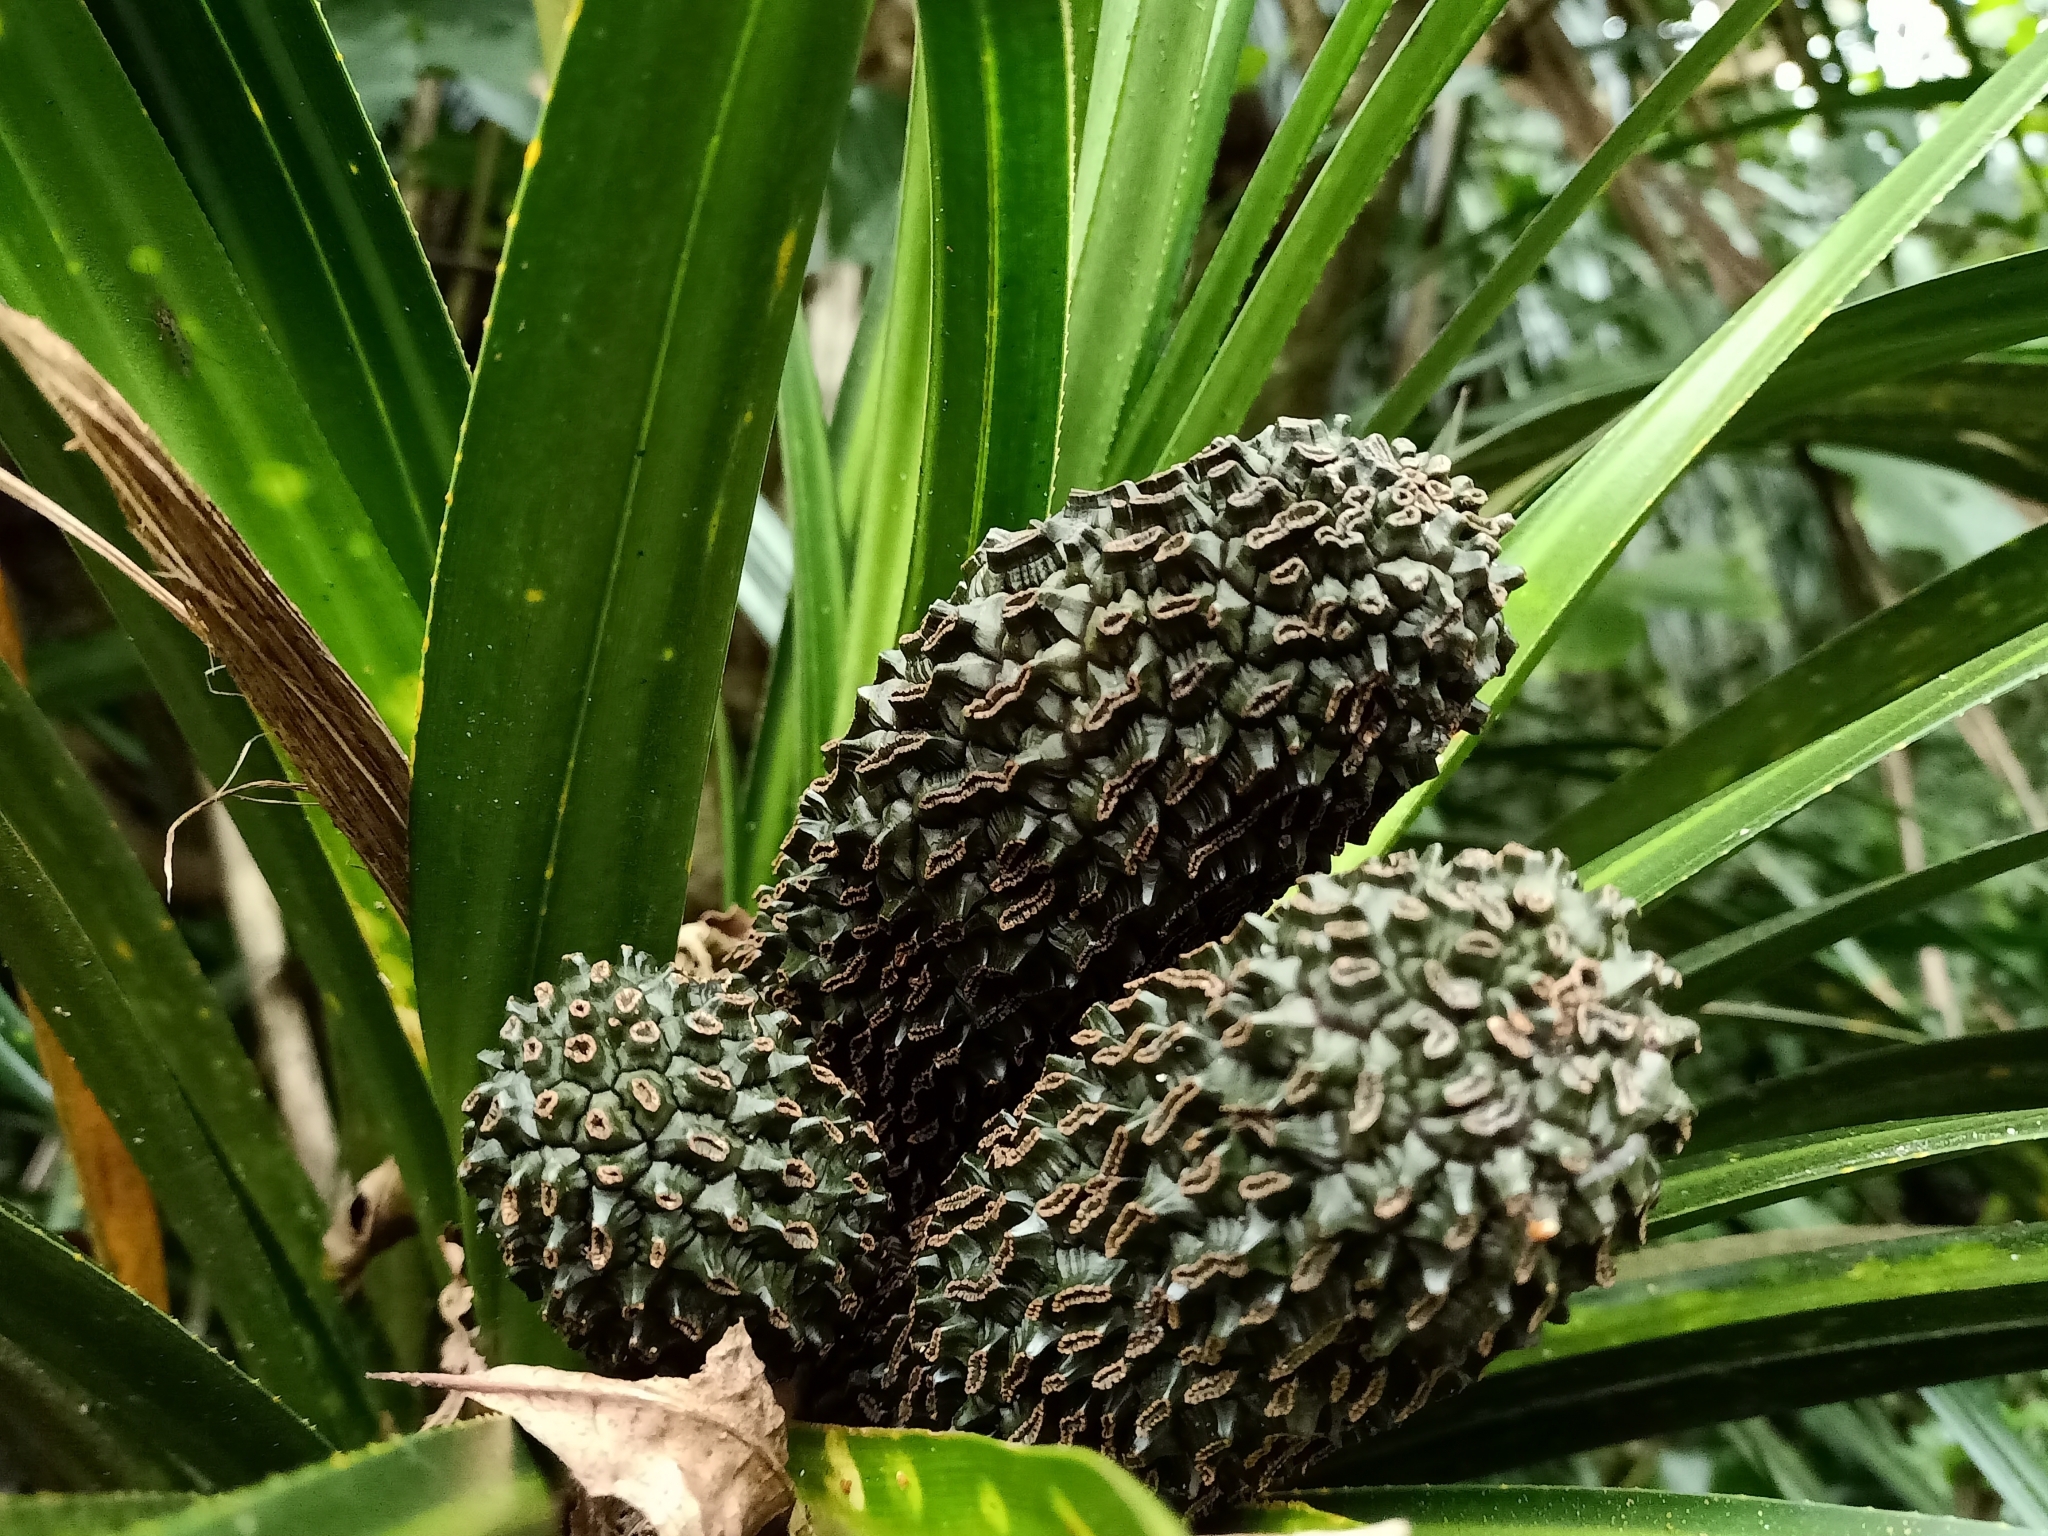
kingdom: Plantae
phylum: Tracheophyta
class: Liliopsida
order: Pandanales
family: Pandanaceae
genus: Freycinetia
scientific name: Freycinetia banksii
